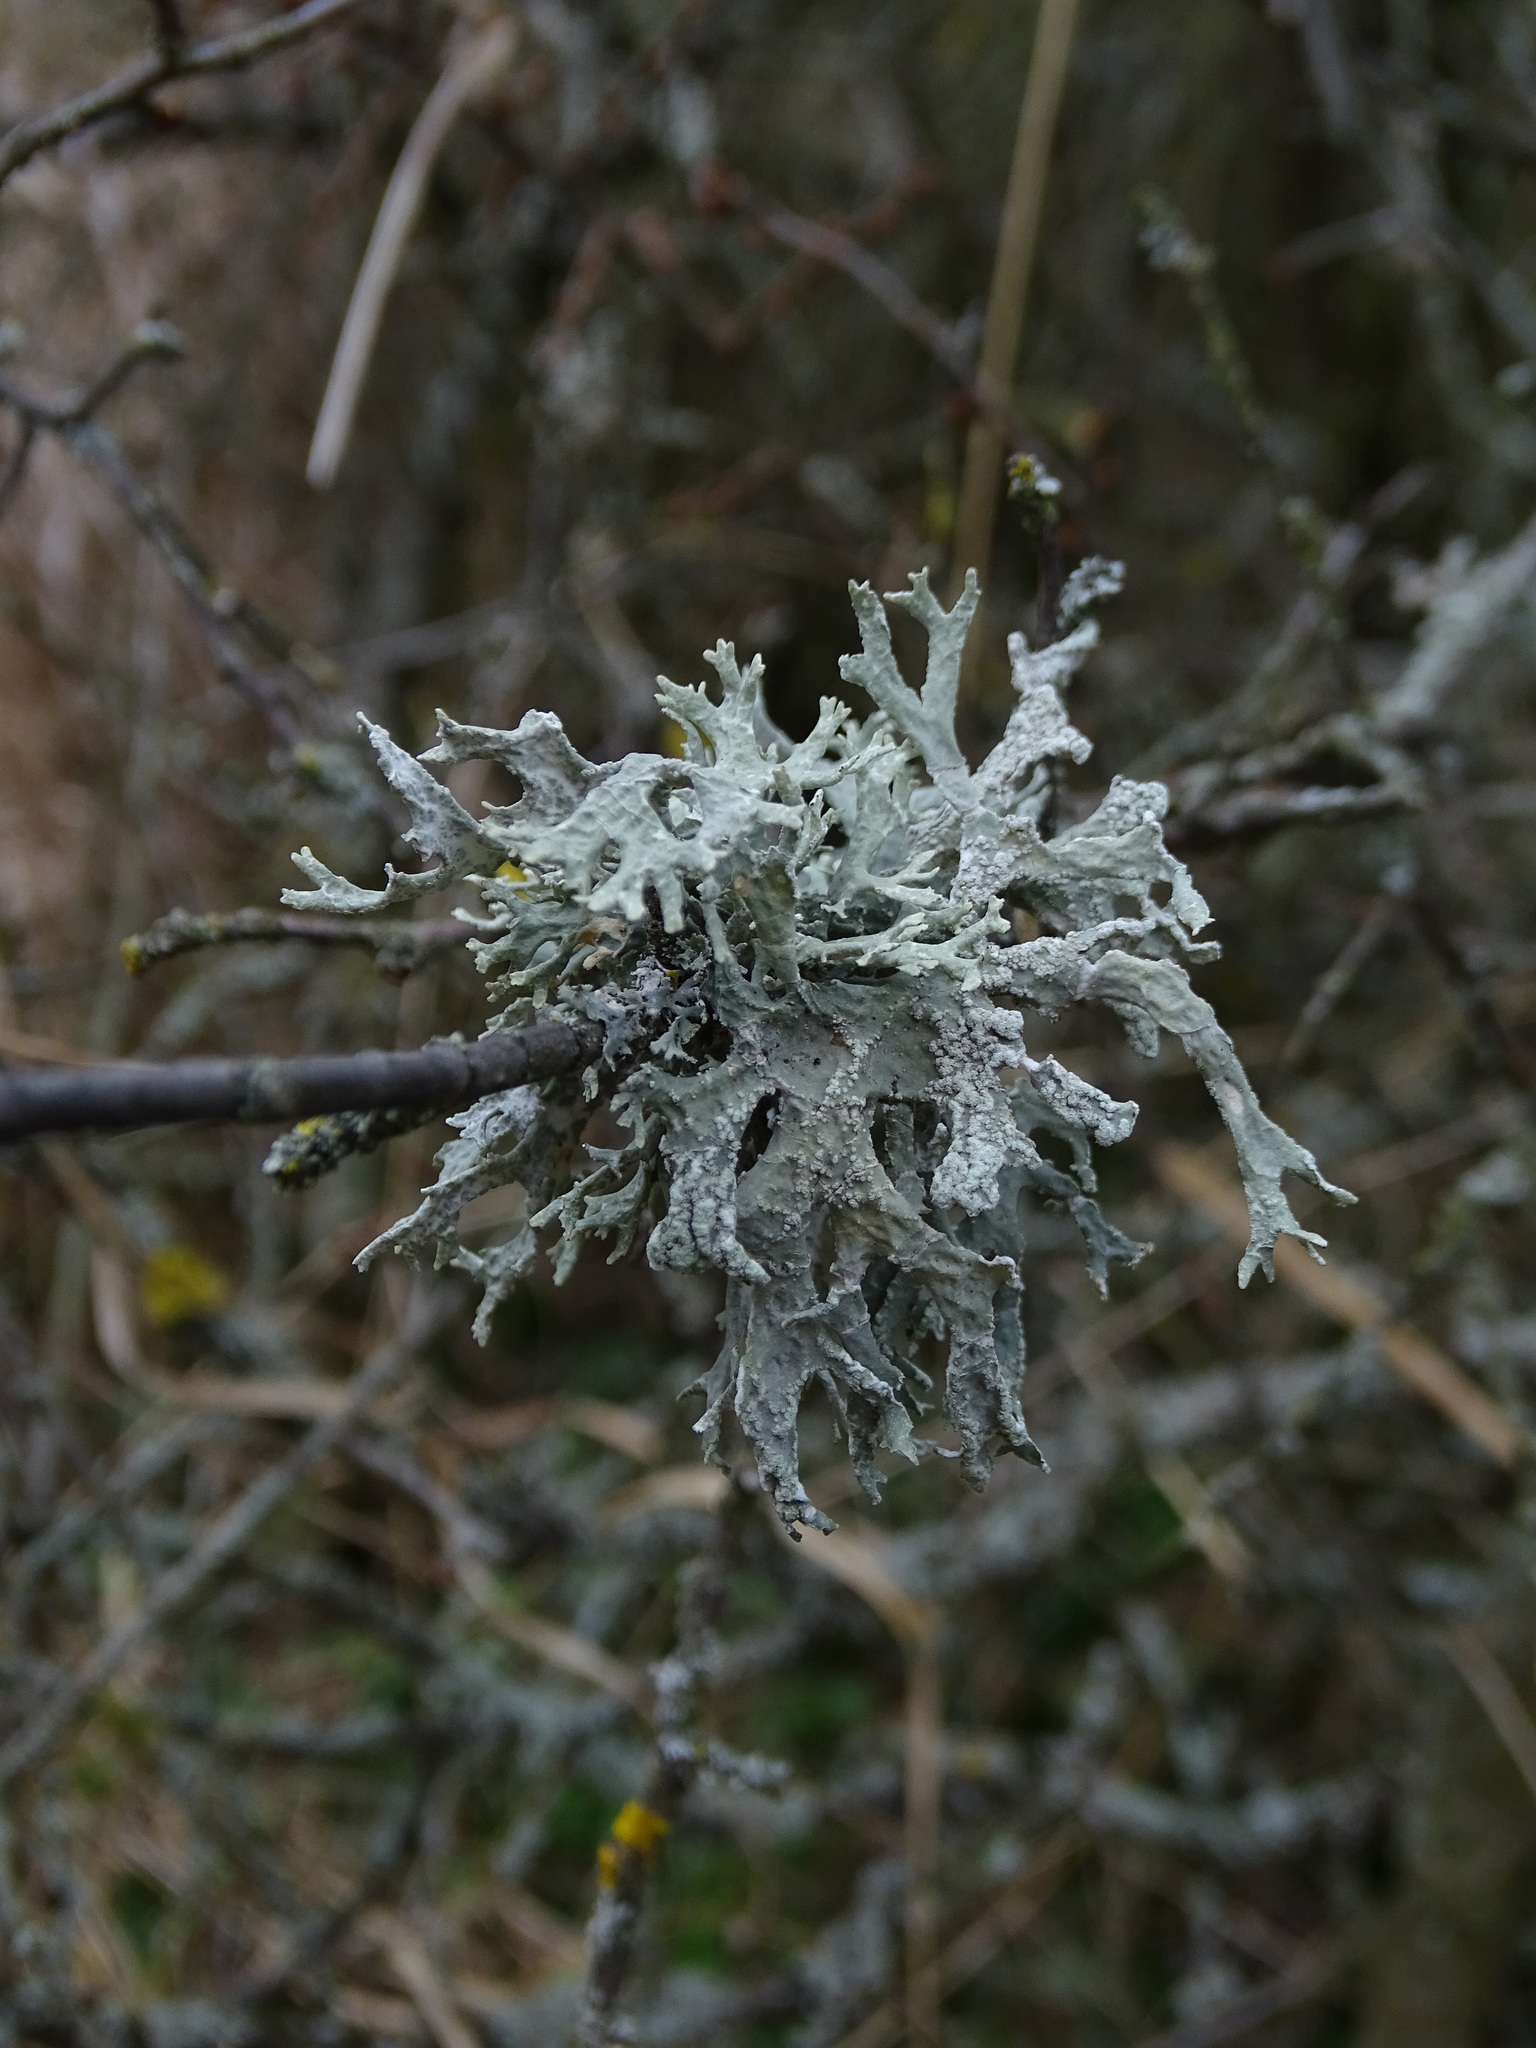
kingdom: Fungi
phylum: Ascomycota
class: Lecanoromycetes
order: Lecanorales
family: Parmeliaceae
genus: Evernia
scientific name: Evernia prunastri
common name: Oak moss
